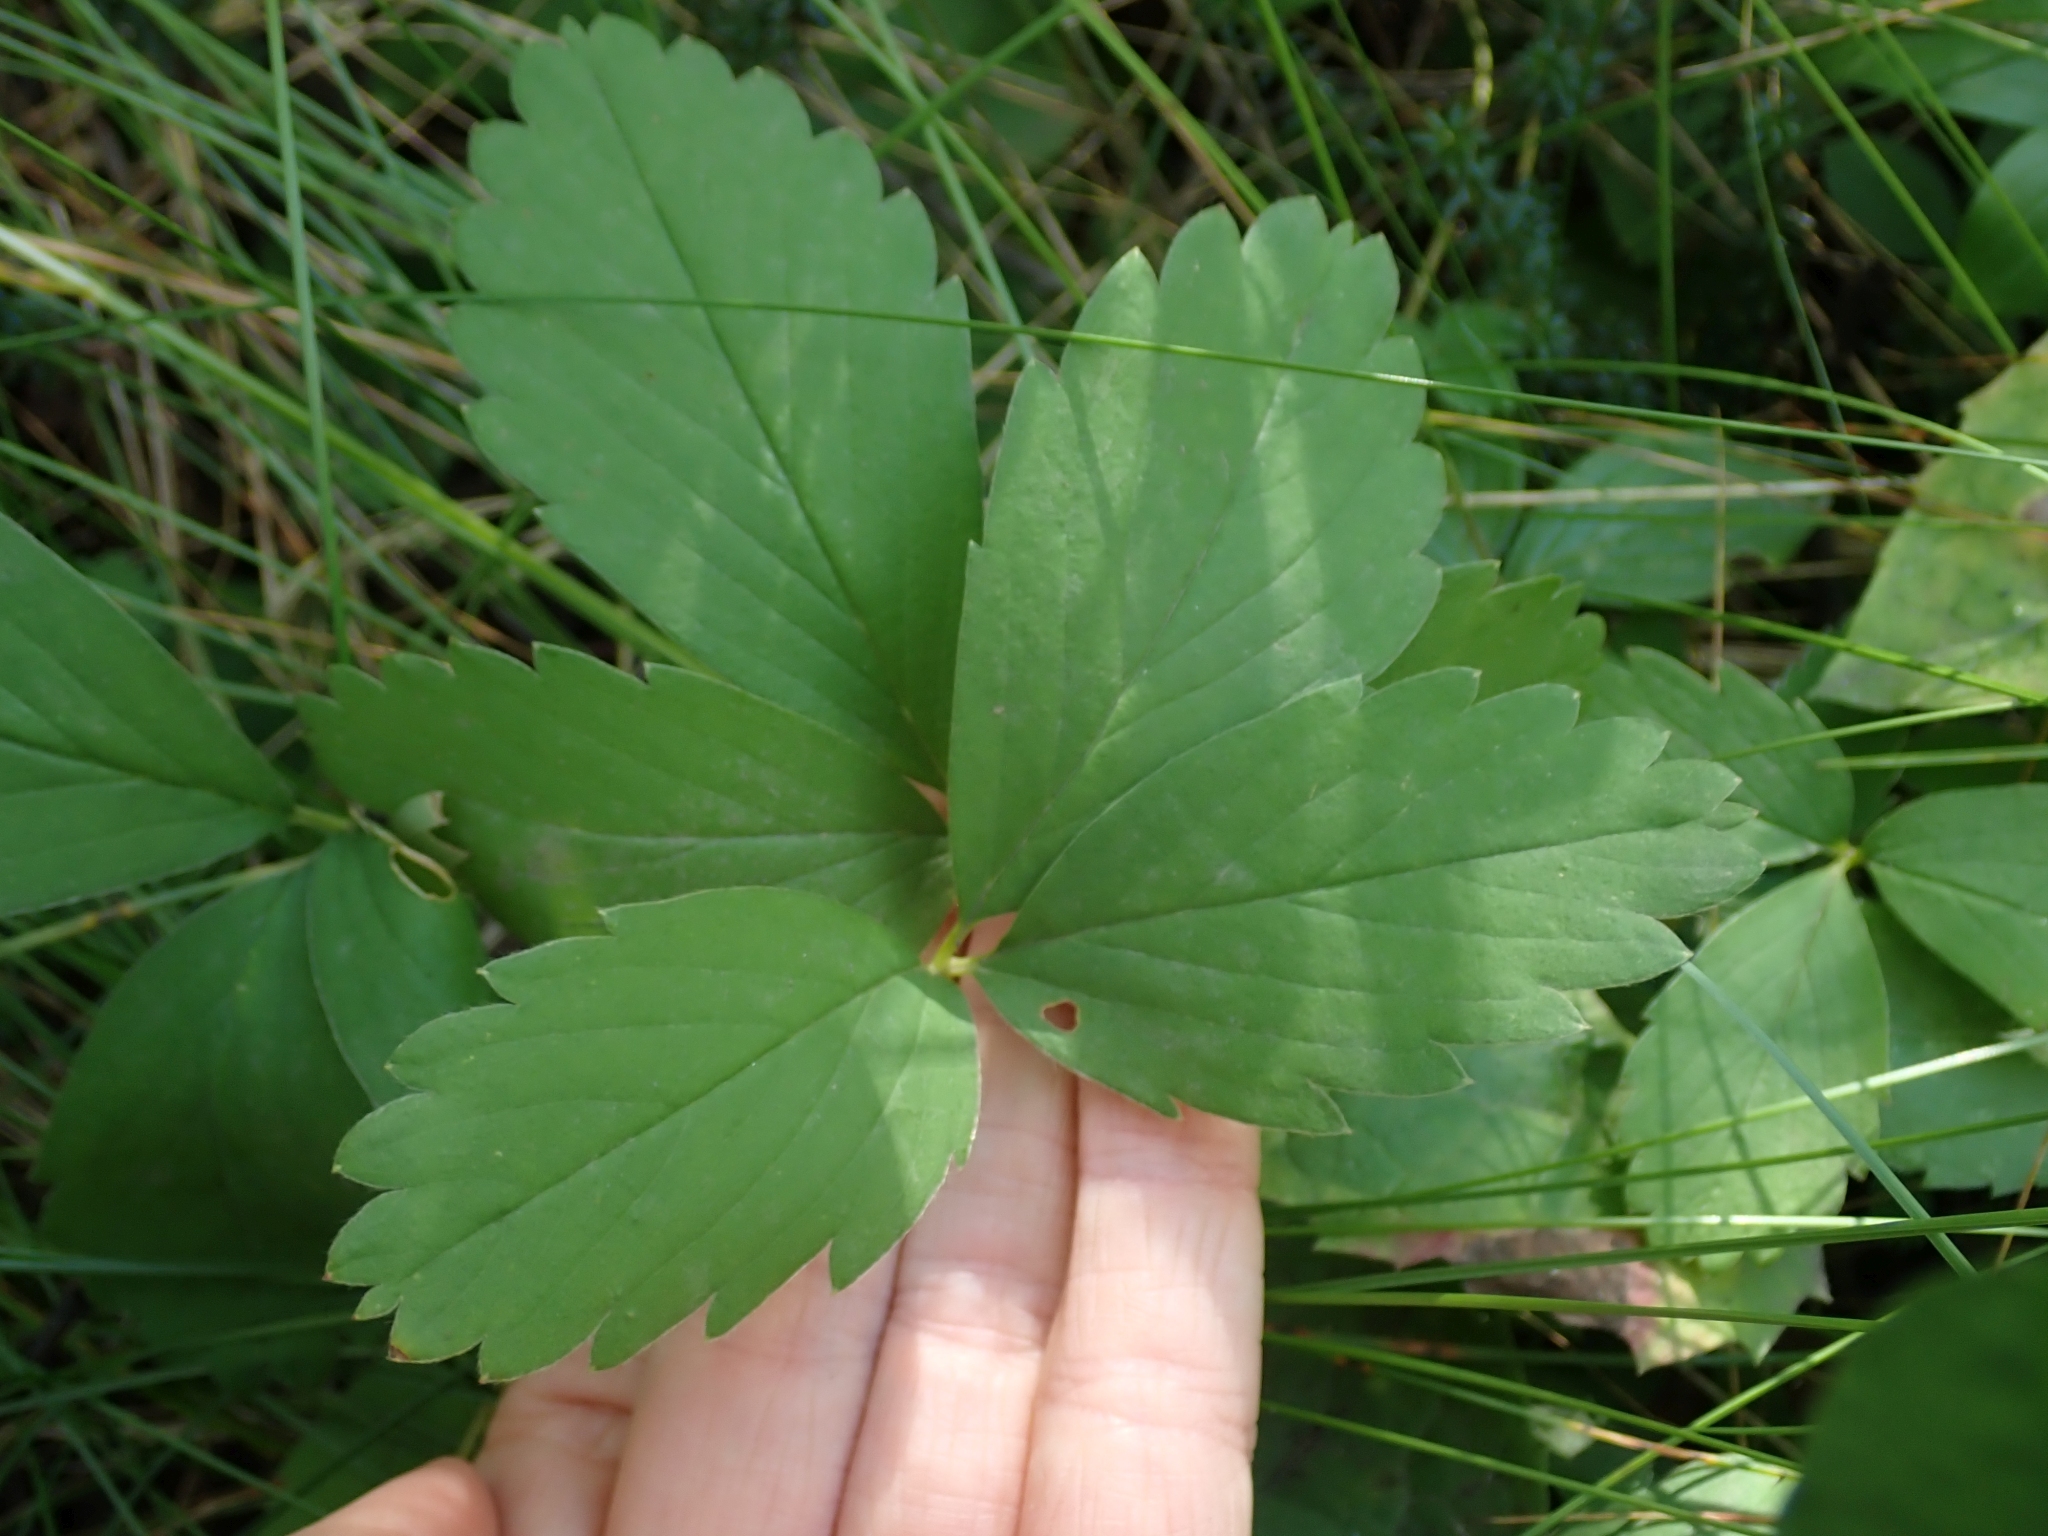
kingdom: Plantae
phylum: Tracheophyta
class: Magnoliopsida
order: Rosales
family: Rosaceae
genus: Fragaria
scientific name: Fragaria virginiana
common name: Thickleaved wild strawberry
